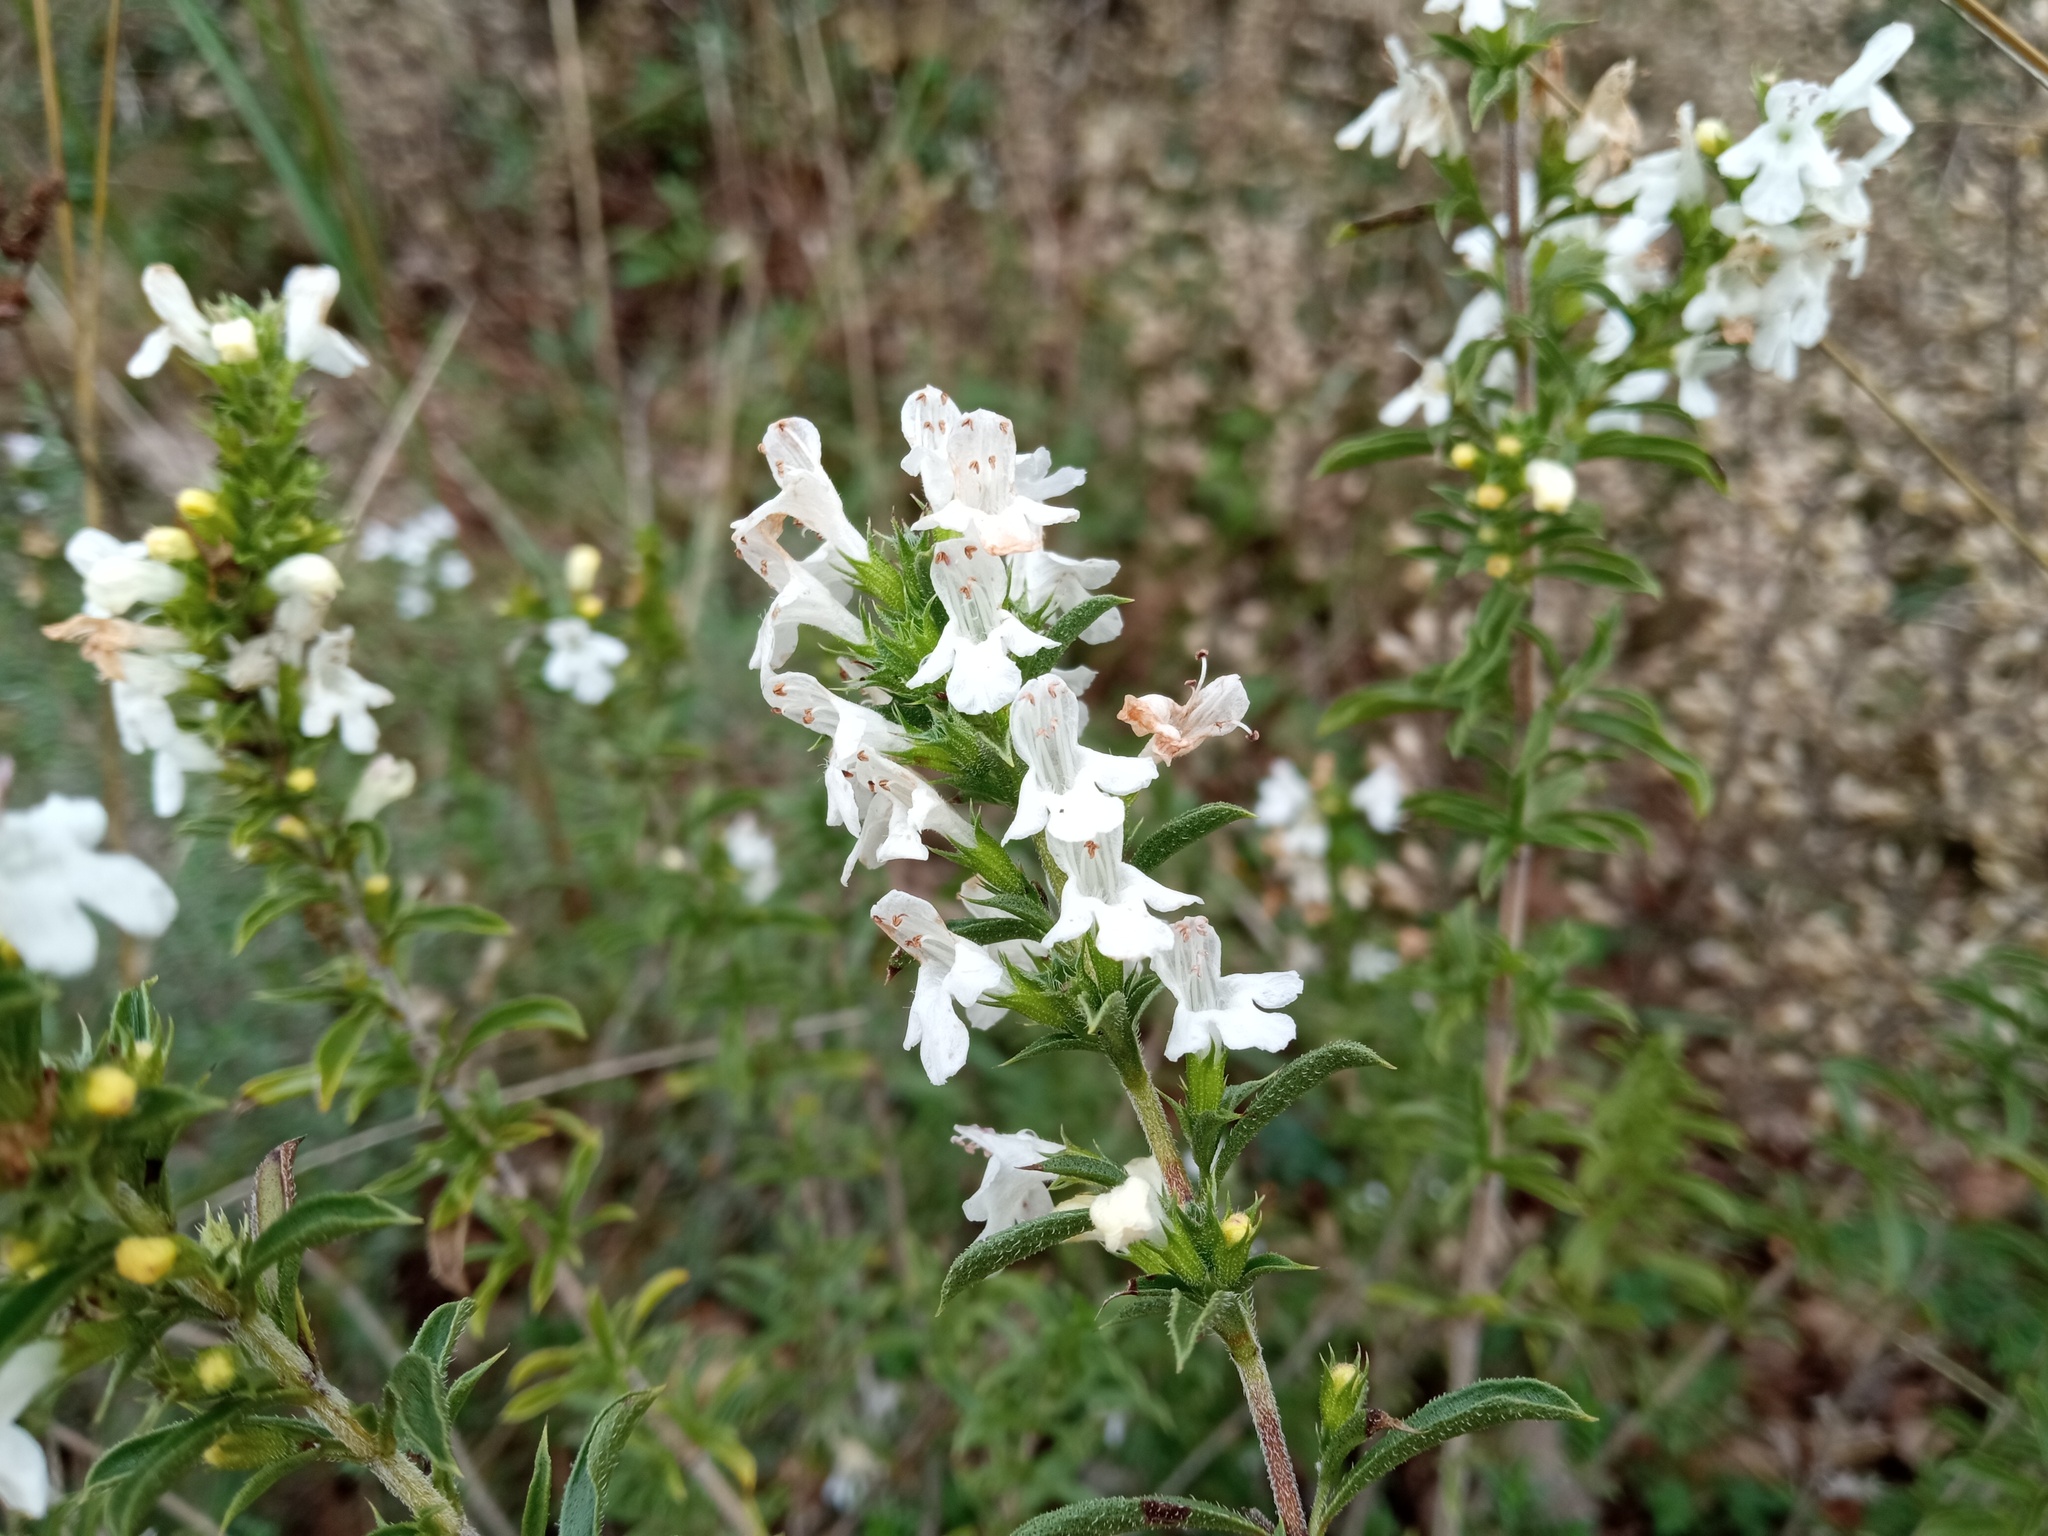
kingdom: Plantae
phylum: Tracheophyta
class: Magnoliopsida
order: Lamiales
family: Lamiaceae
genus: Satureja
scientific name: Satureja montana
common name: Winter savory
